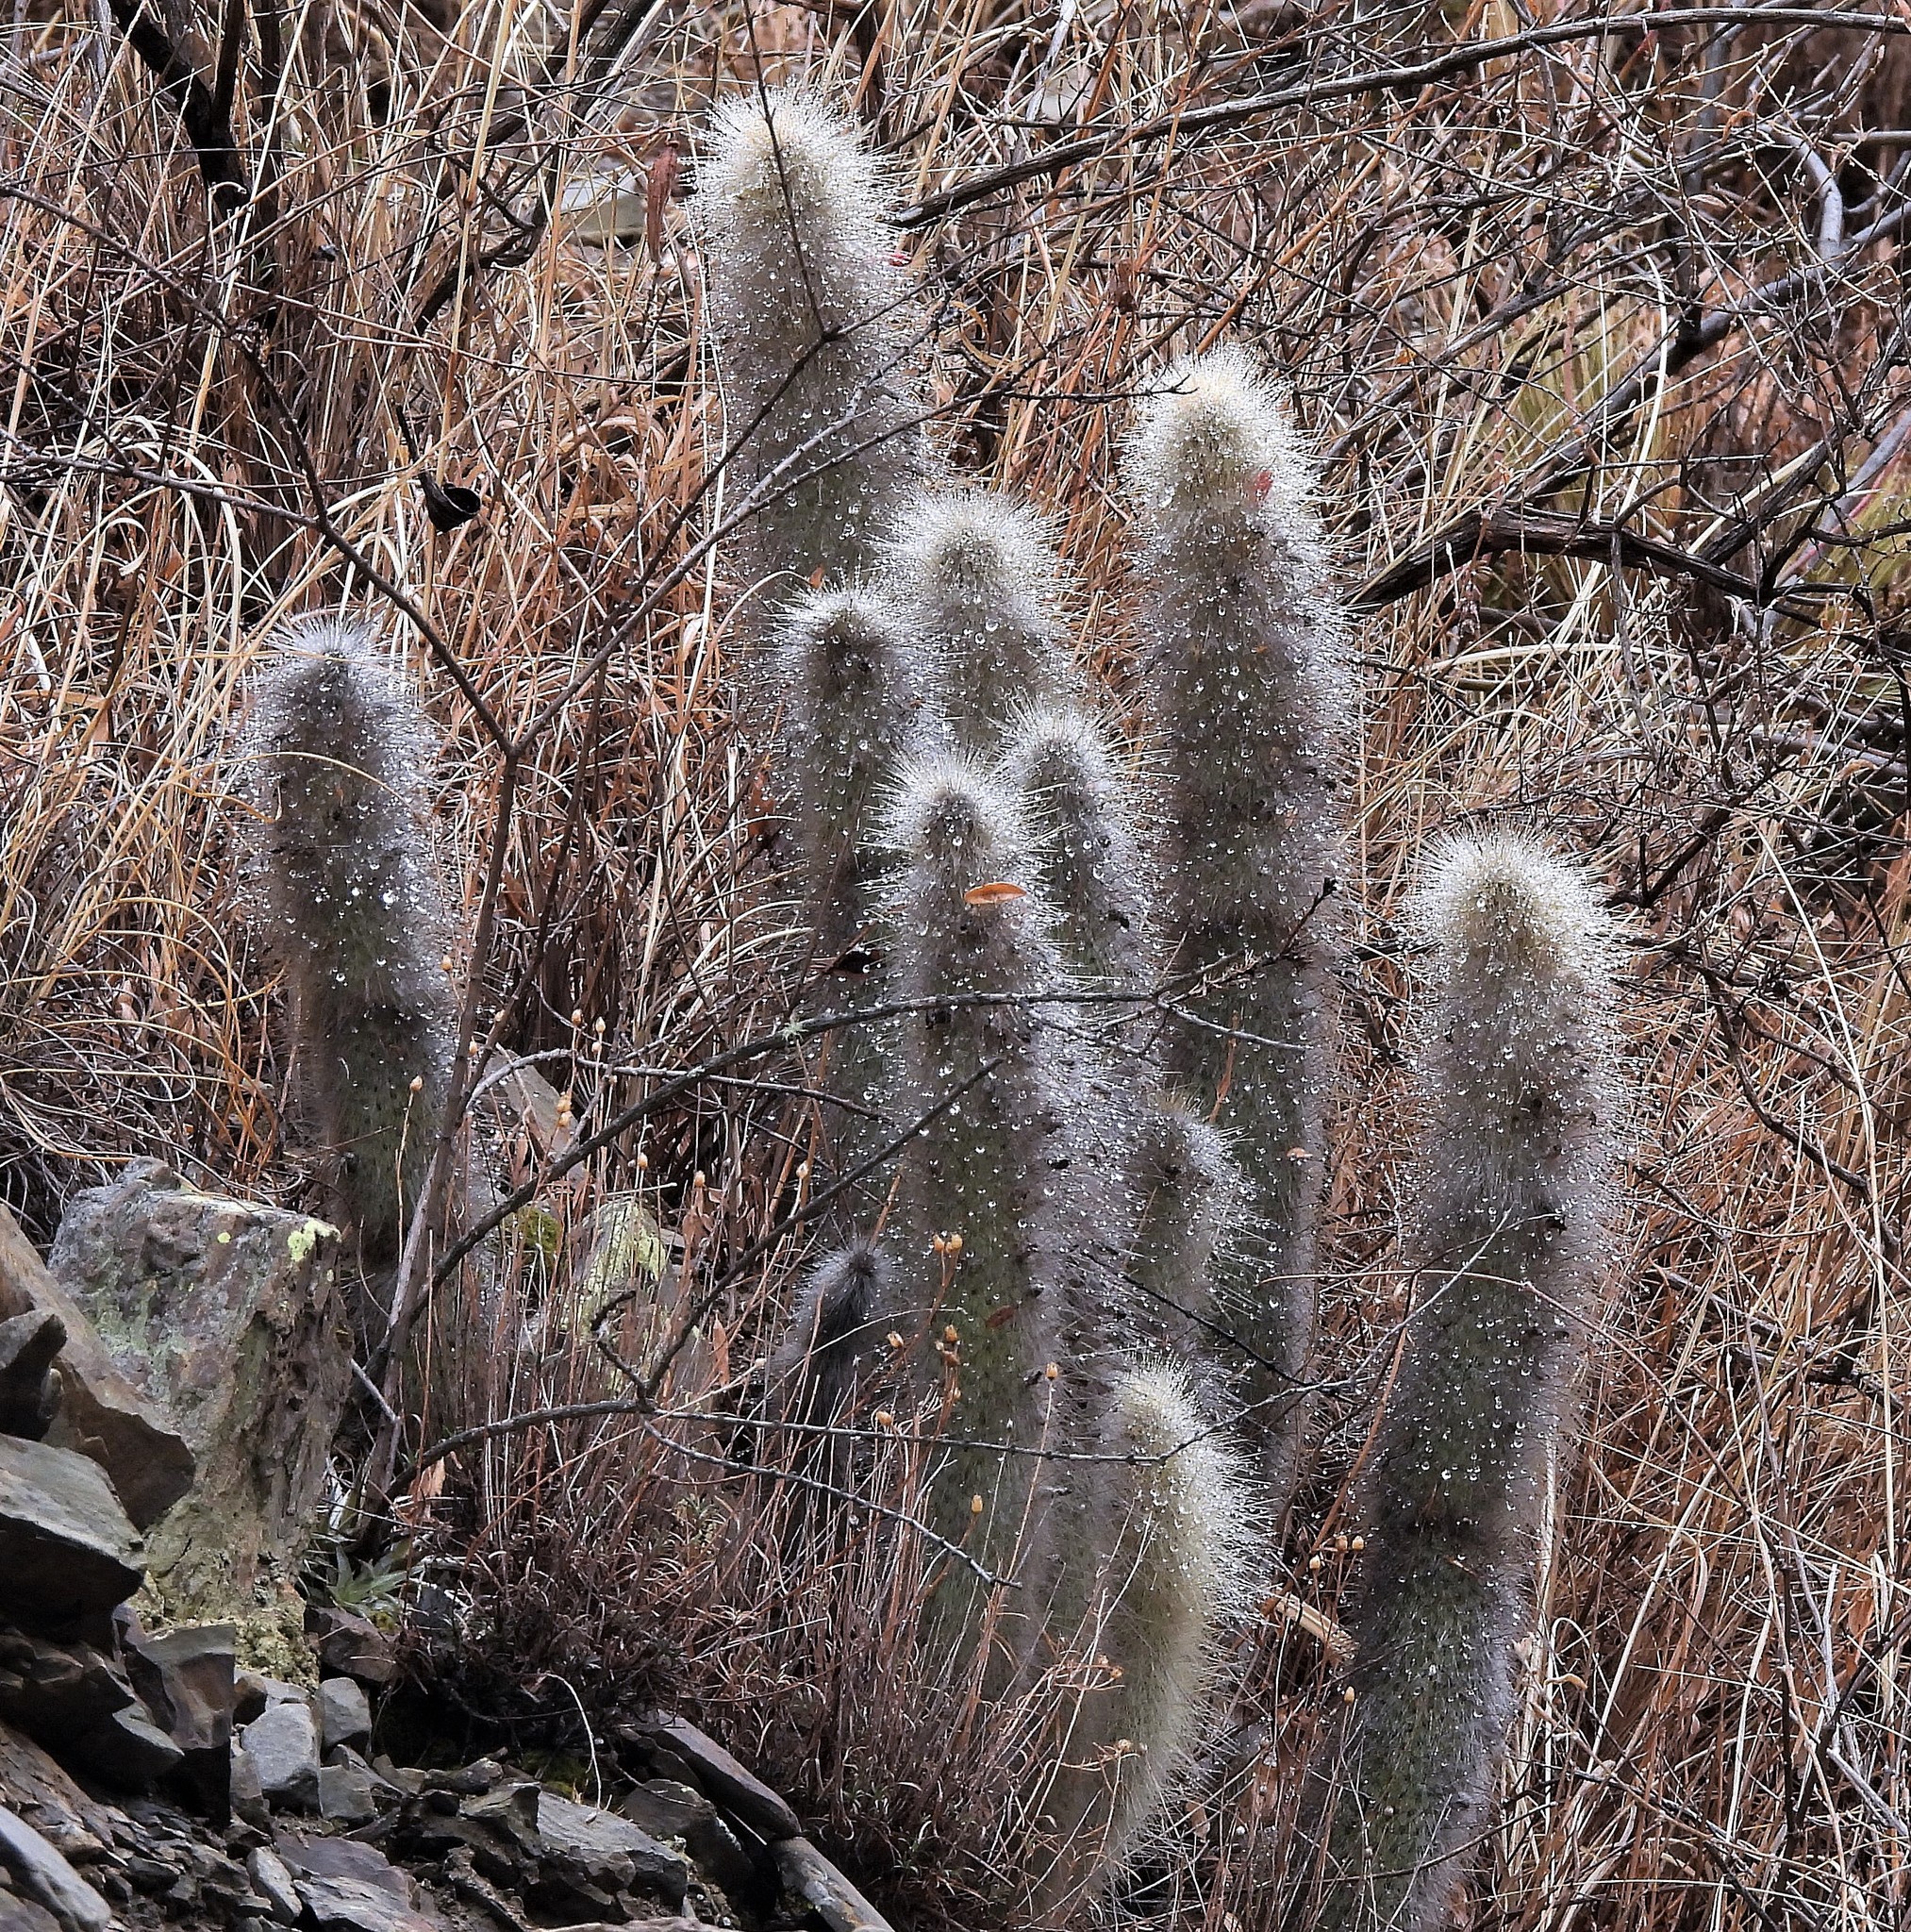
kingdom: Plantae
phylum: Tracheophyta
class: Magnoliopsida
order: Caryophyllales
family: Cactaceae
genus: Cleistocactus
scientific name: Cleistocactus hyalacanthus
